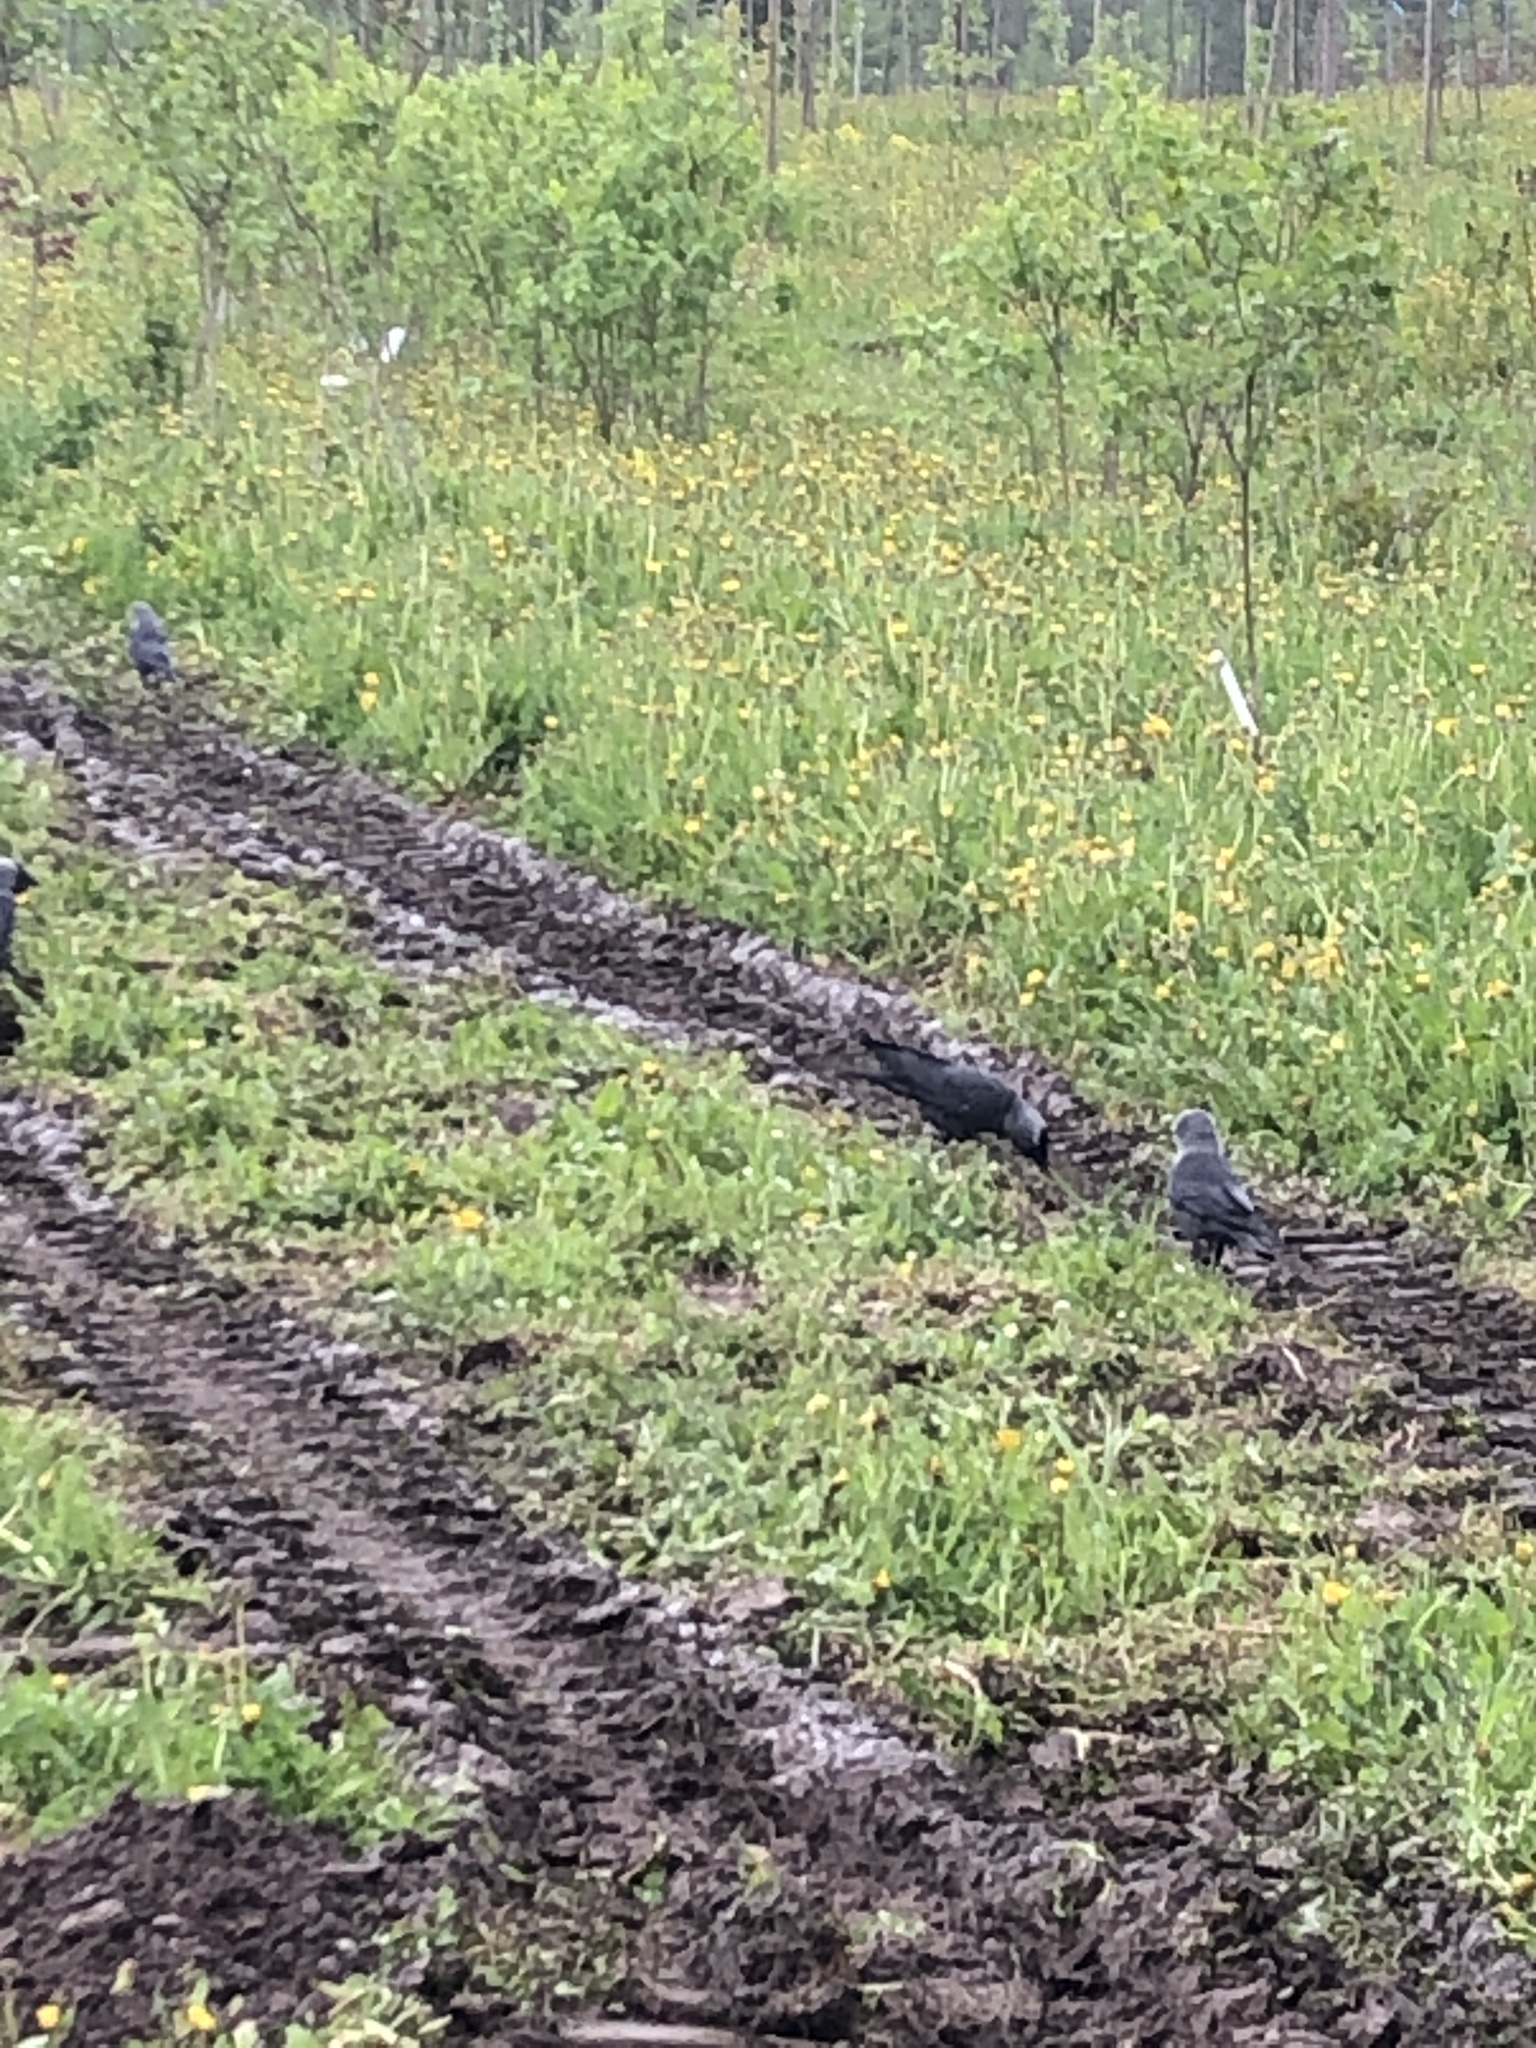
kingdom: Animalia
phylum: Chordata
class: Aves
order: Passeriformes
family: Corvidae
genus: Coloeus
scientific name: Coloeus monedula
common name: Western jackdaw
